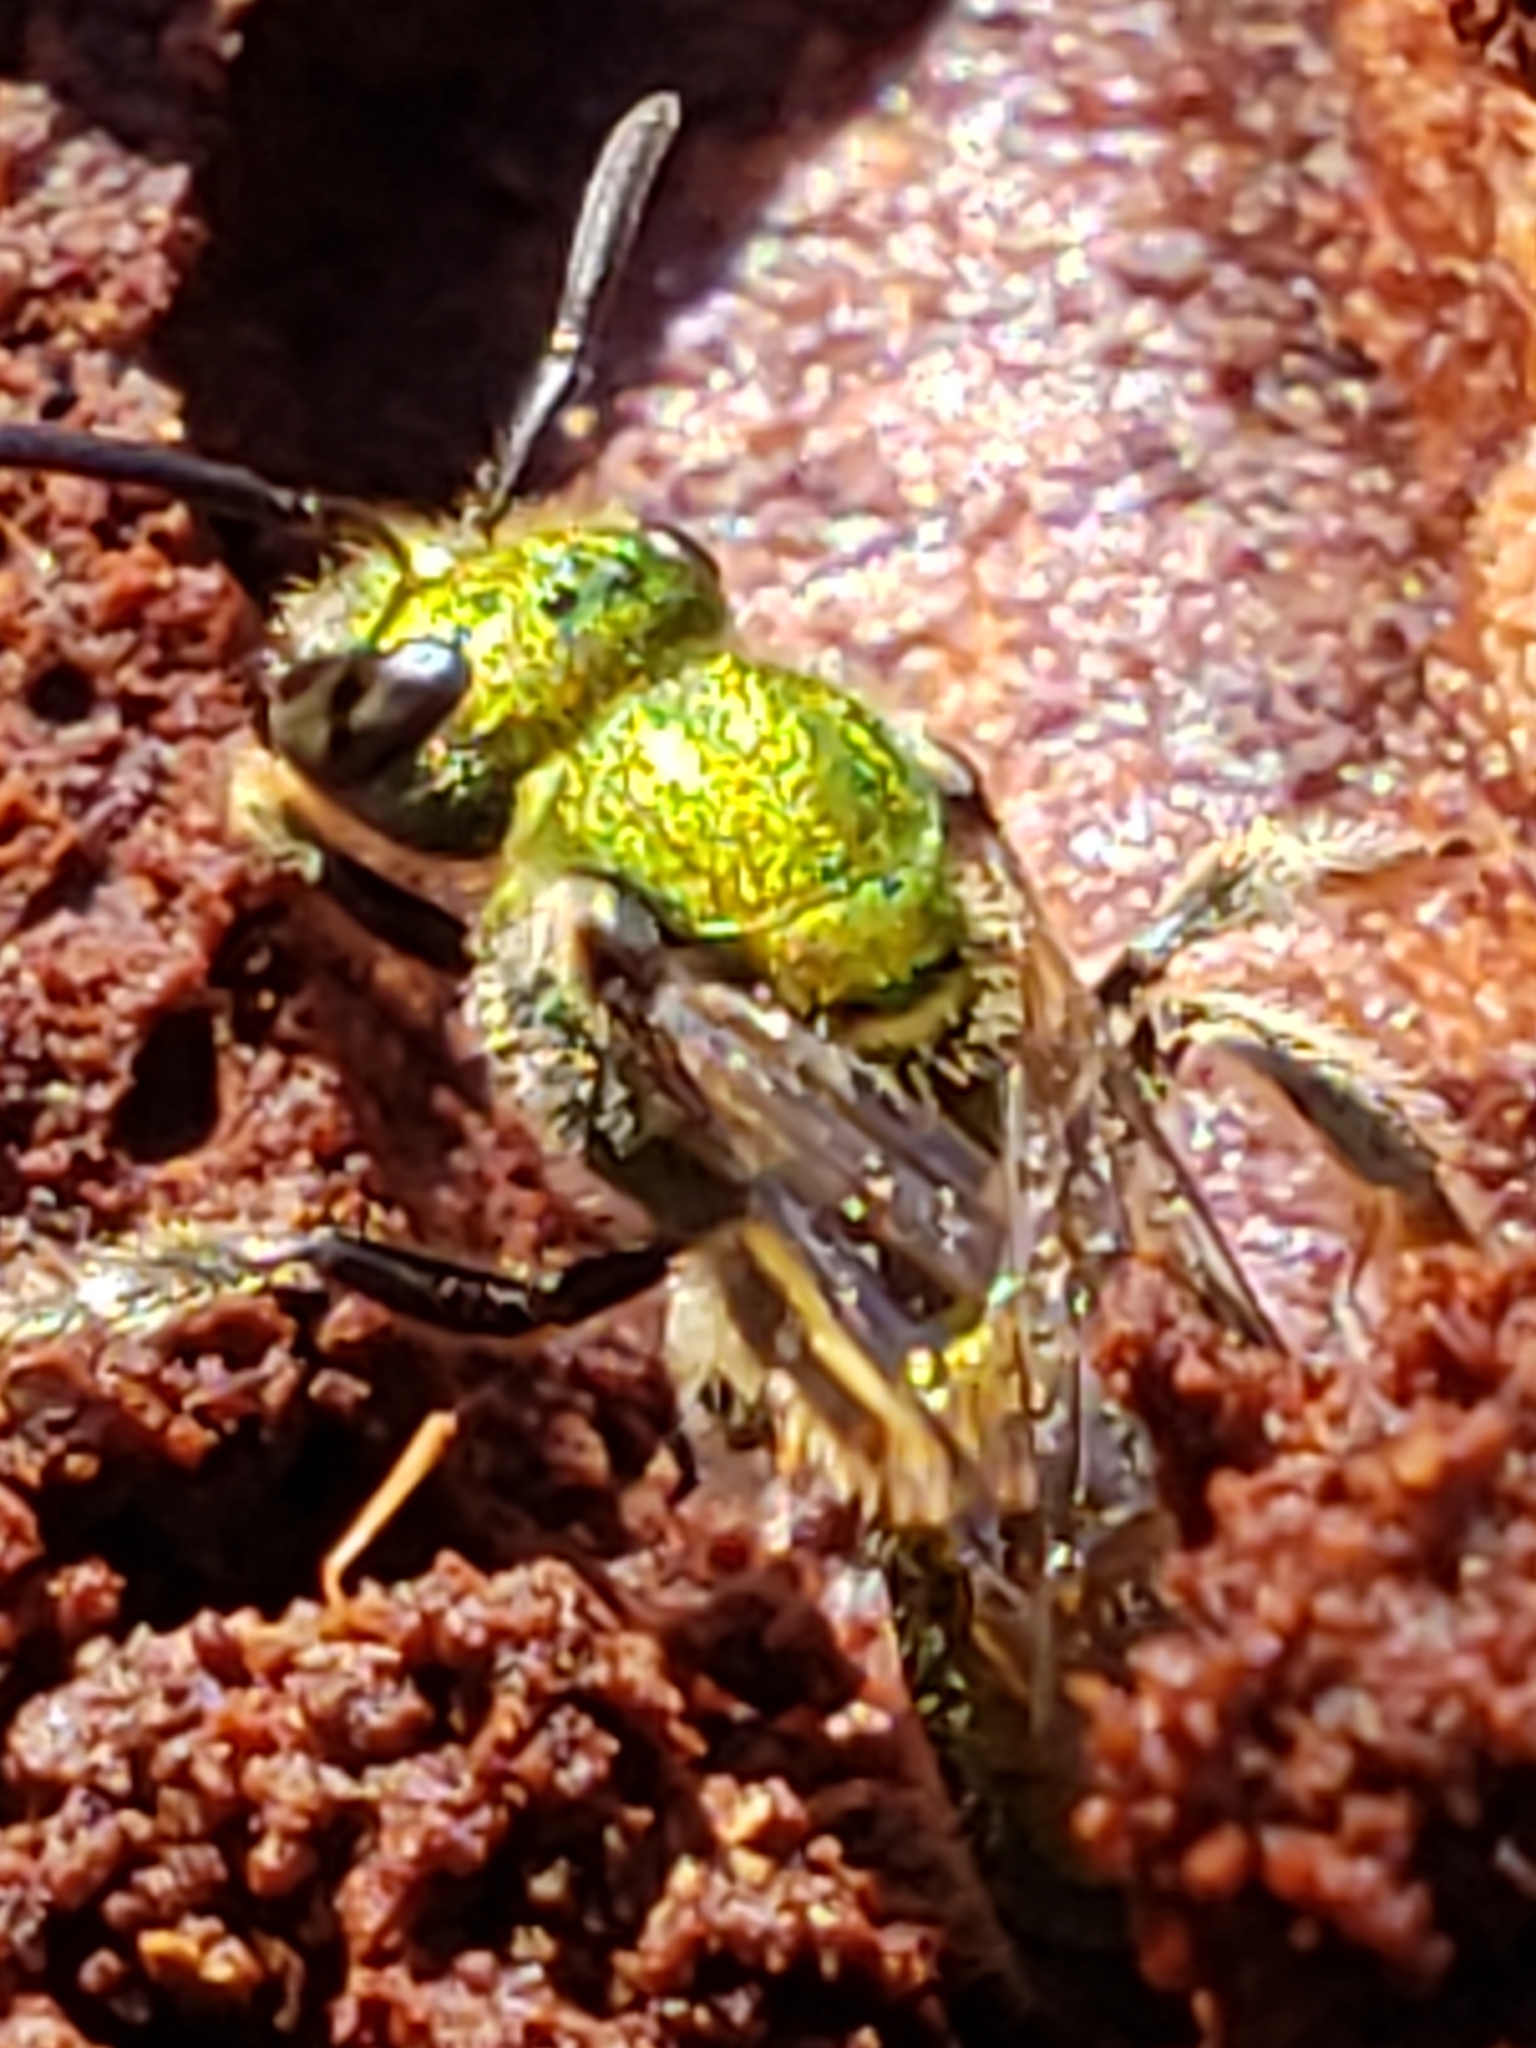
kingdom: Animalia
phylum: Arthropoda
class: Insecta
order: Hymenoptera
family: Halictidae
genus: Augochlora
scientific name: Augochlora pura
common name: Pure green sweat bee
